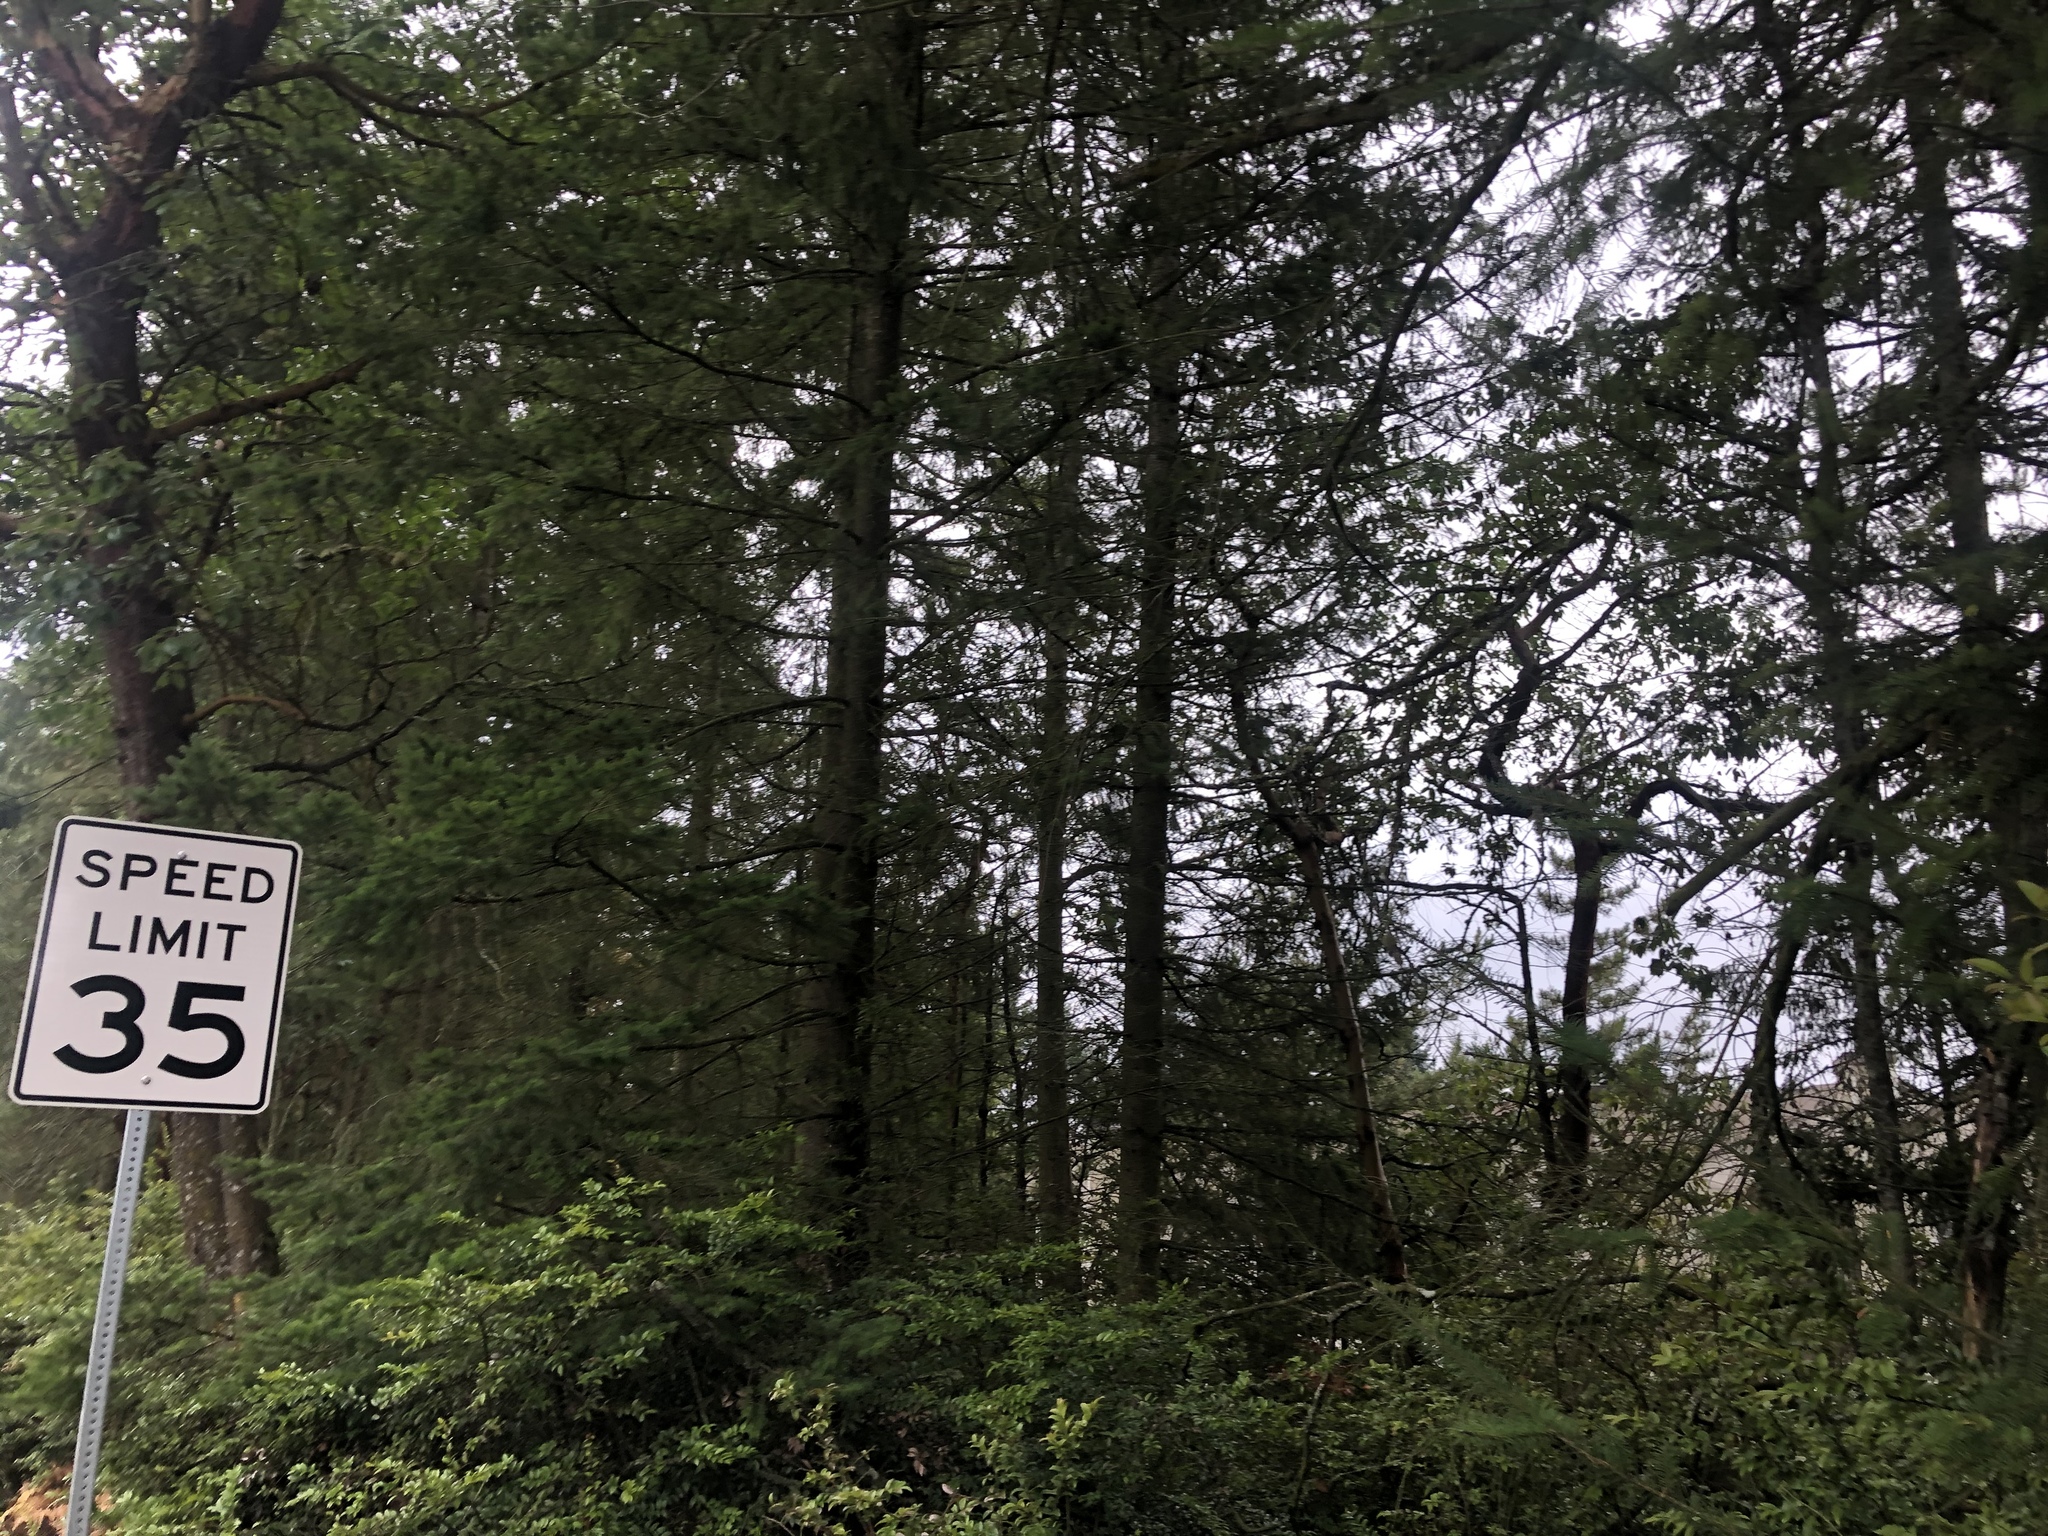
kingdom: Plantae
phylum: Tracheophyta
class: Pinopsida
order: Pinales
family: Pinaceae
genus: Pseudotsuga
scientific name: Pseudotsuga menziesii
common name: Douglas fir
